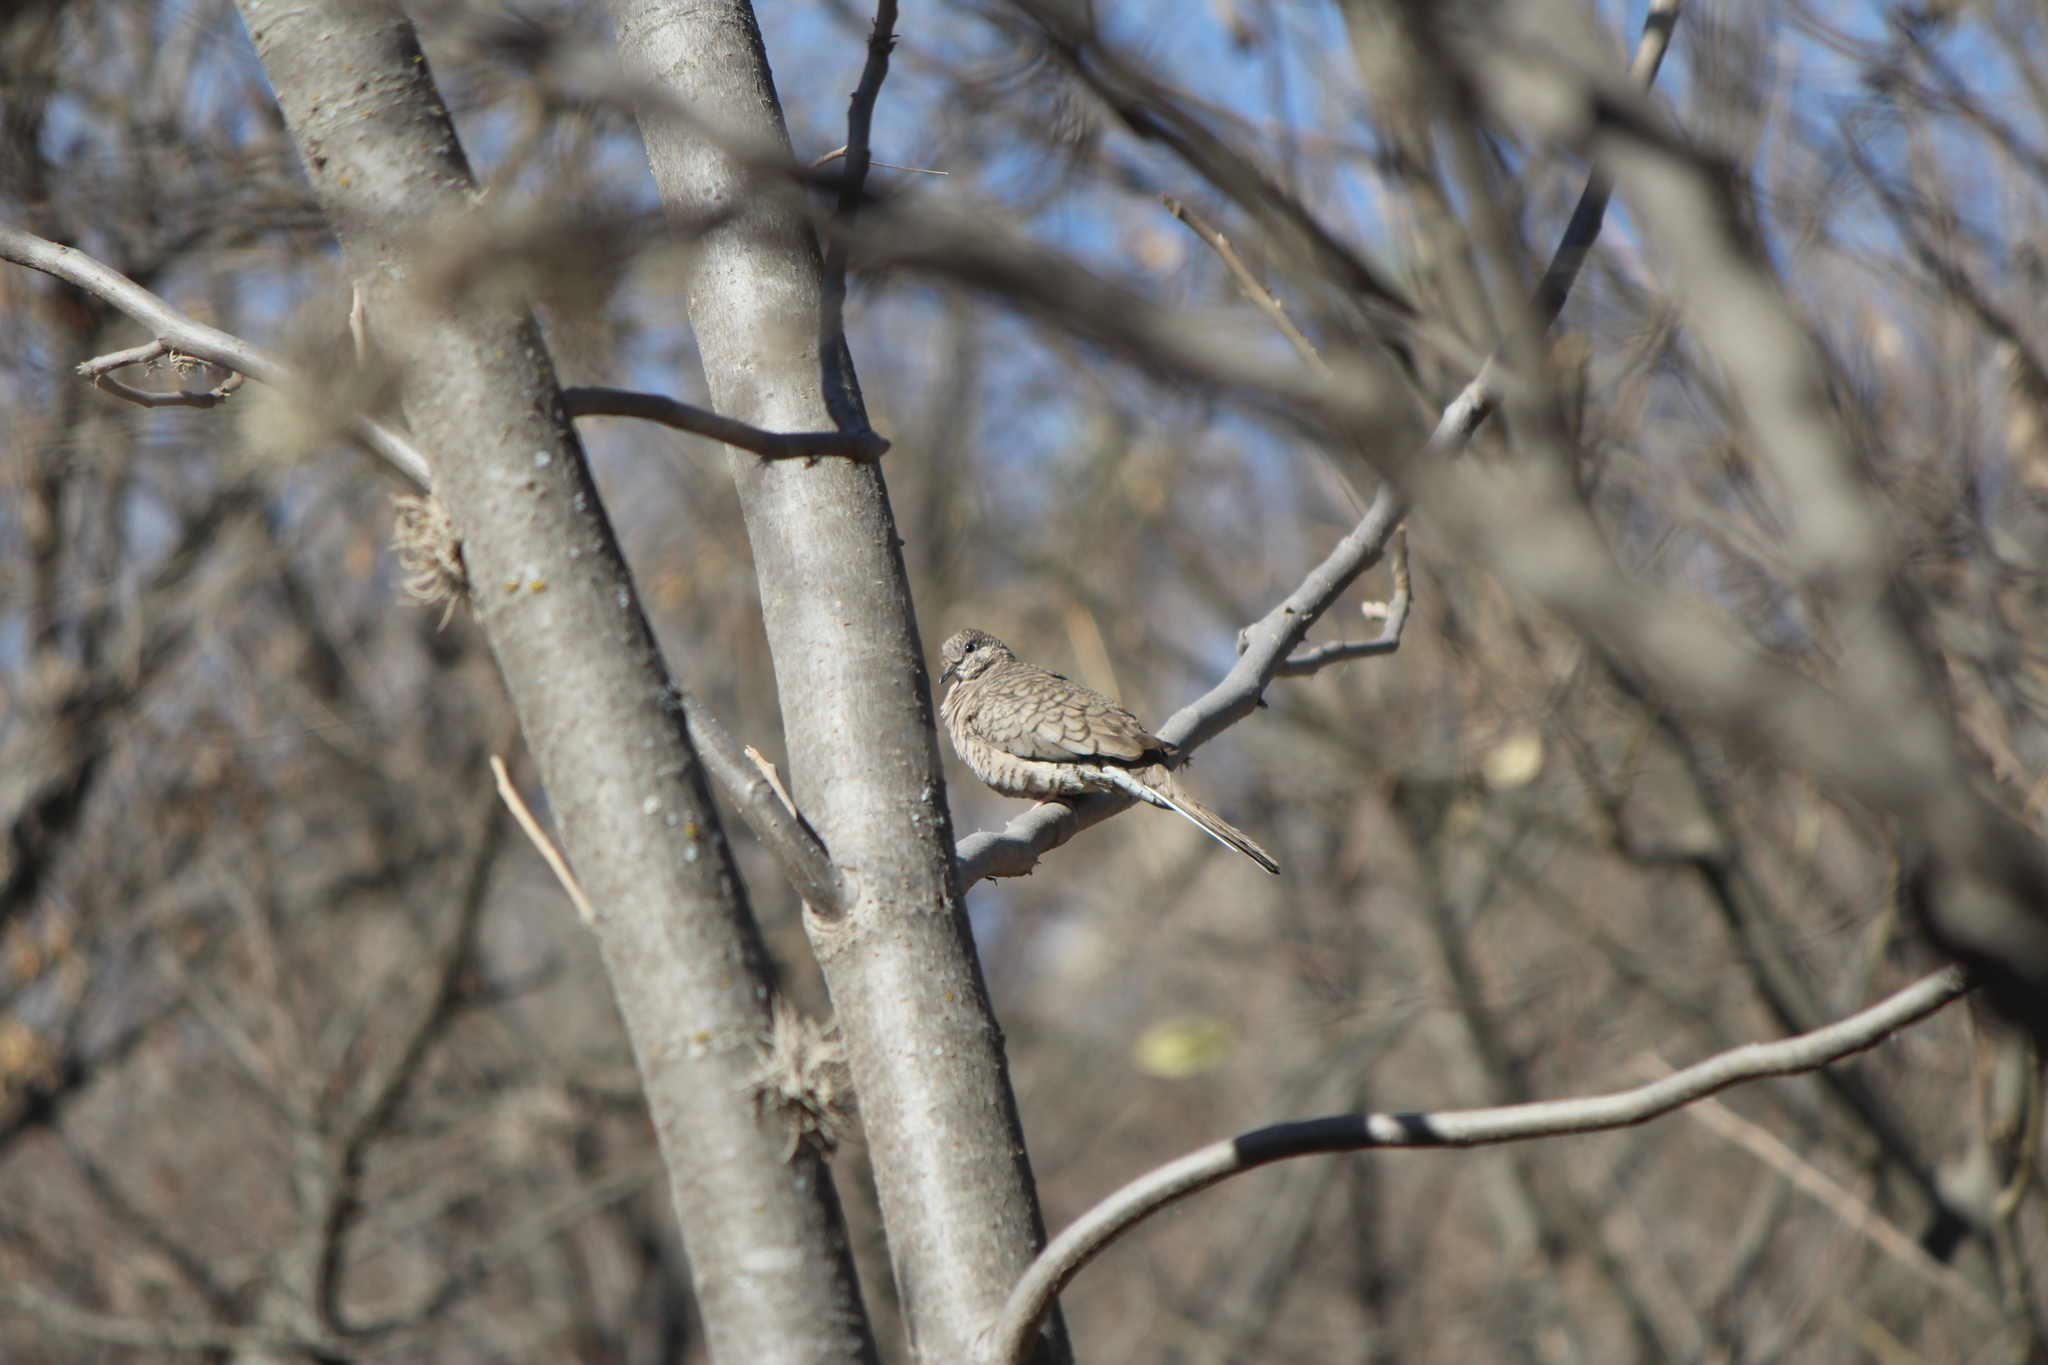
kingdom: Animalia
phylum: Chordata
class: Aves
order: Columbiformes
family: Columbidae
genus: Columbina
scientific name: Columbina inca
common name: Inca dove
